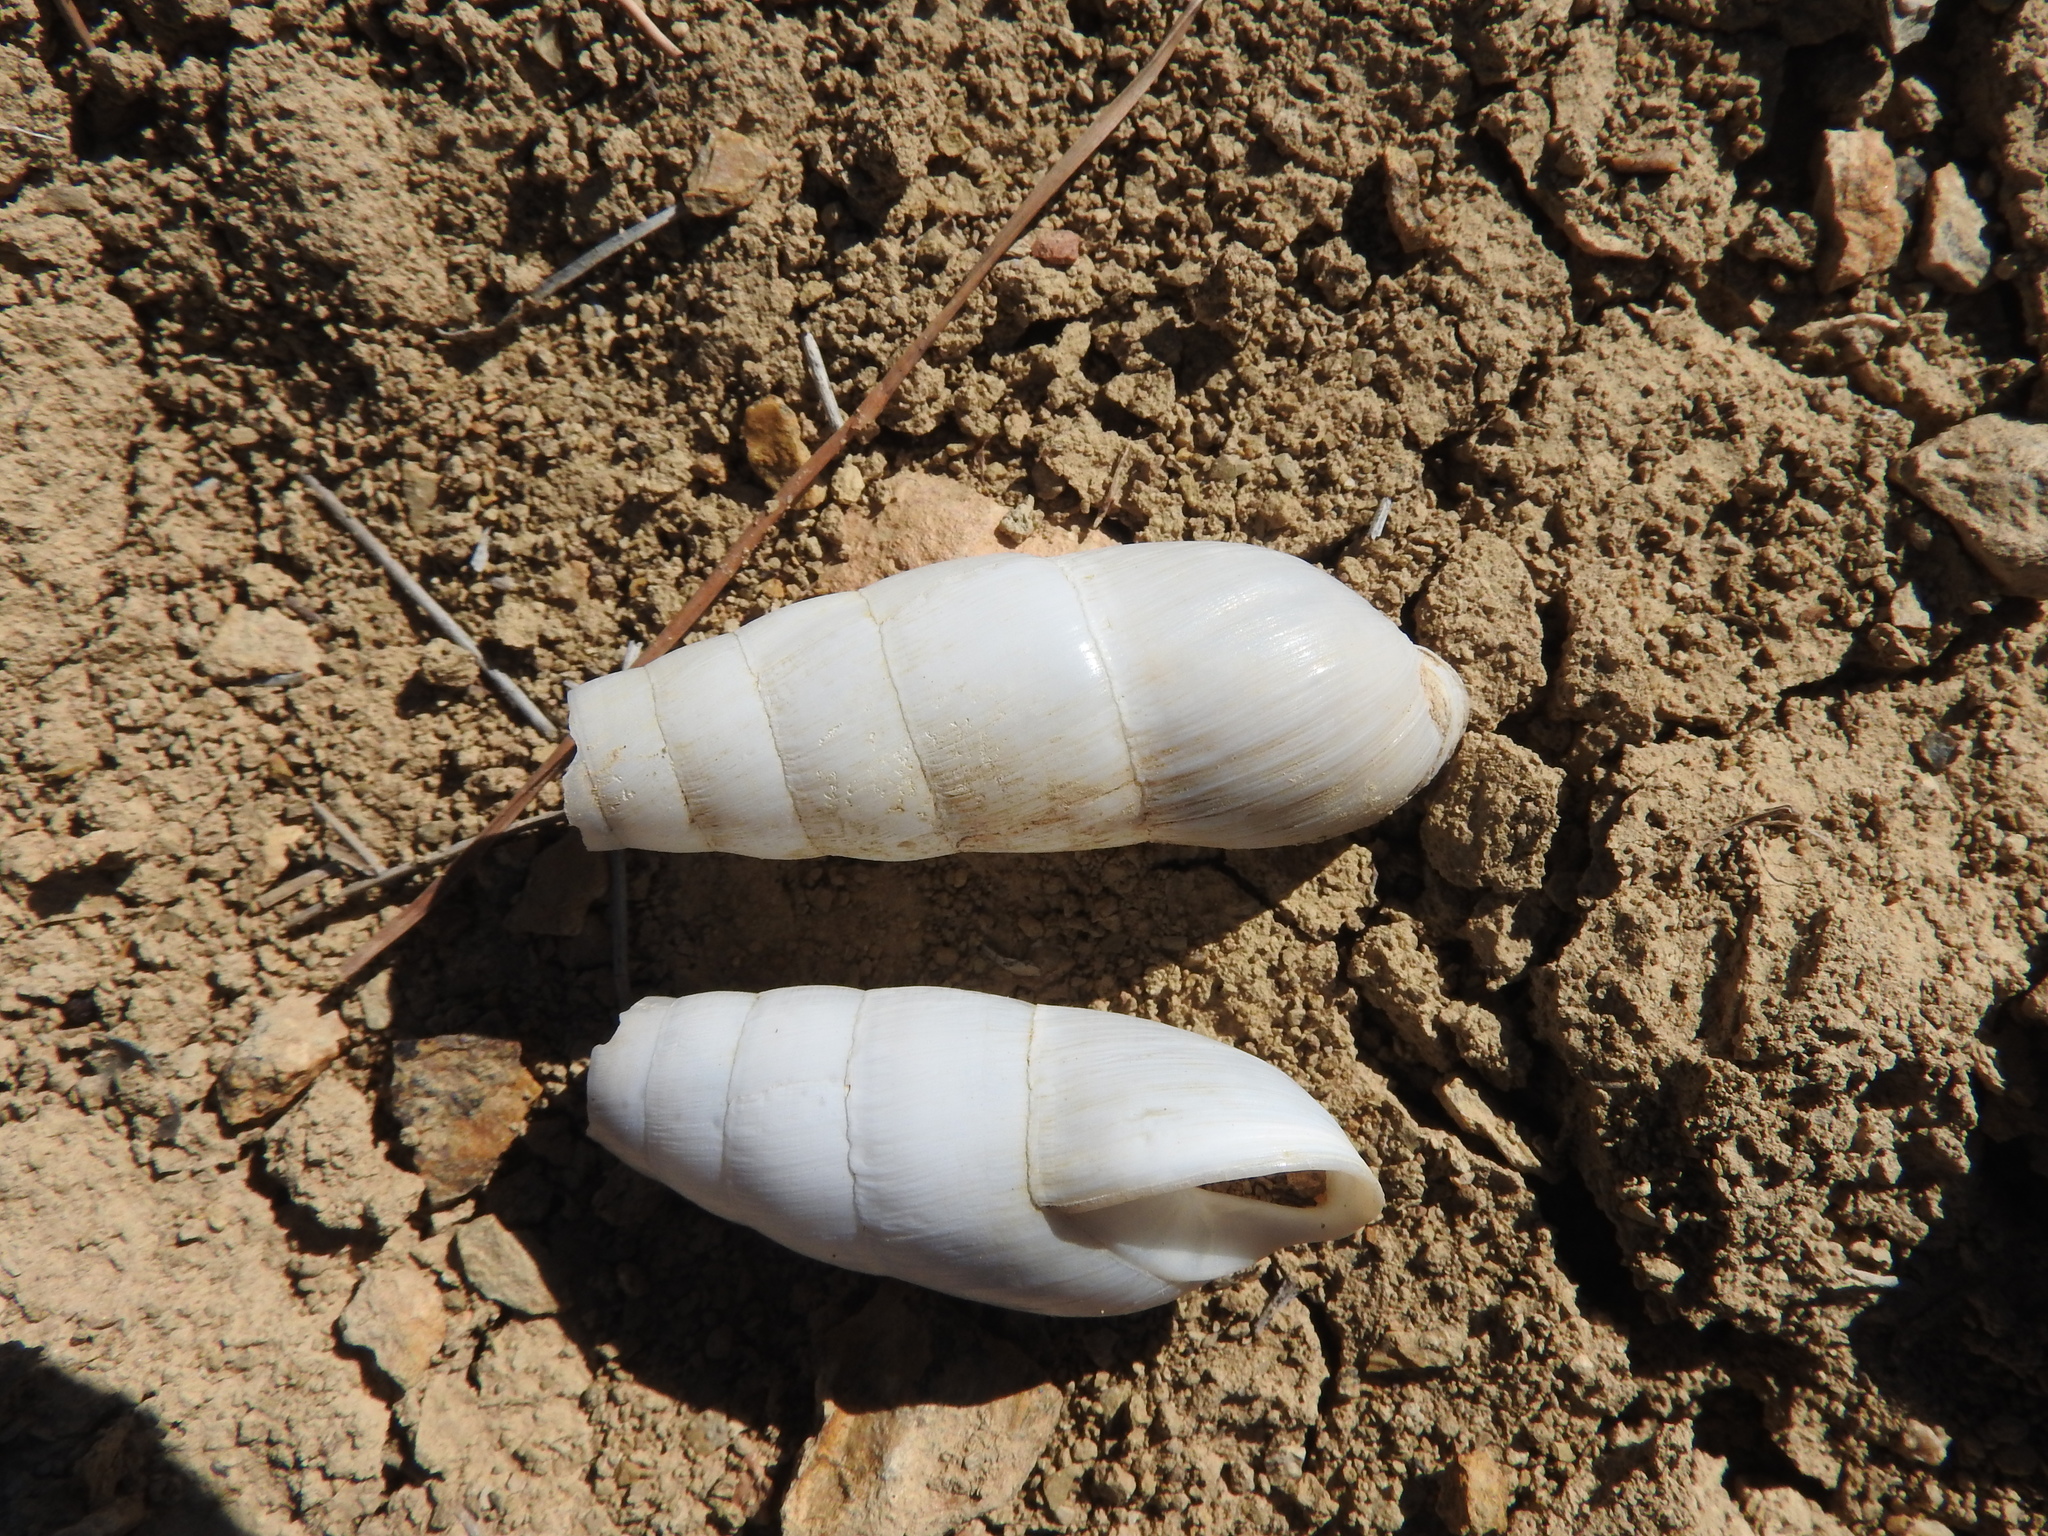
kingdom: Animalia
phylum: Mollusca
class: Gastropoda
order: Stylommatophora
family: Achatinidae
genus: Rumina
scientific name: Rumina decollata
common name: Decollate snail
